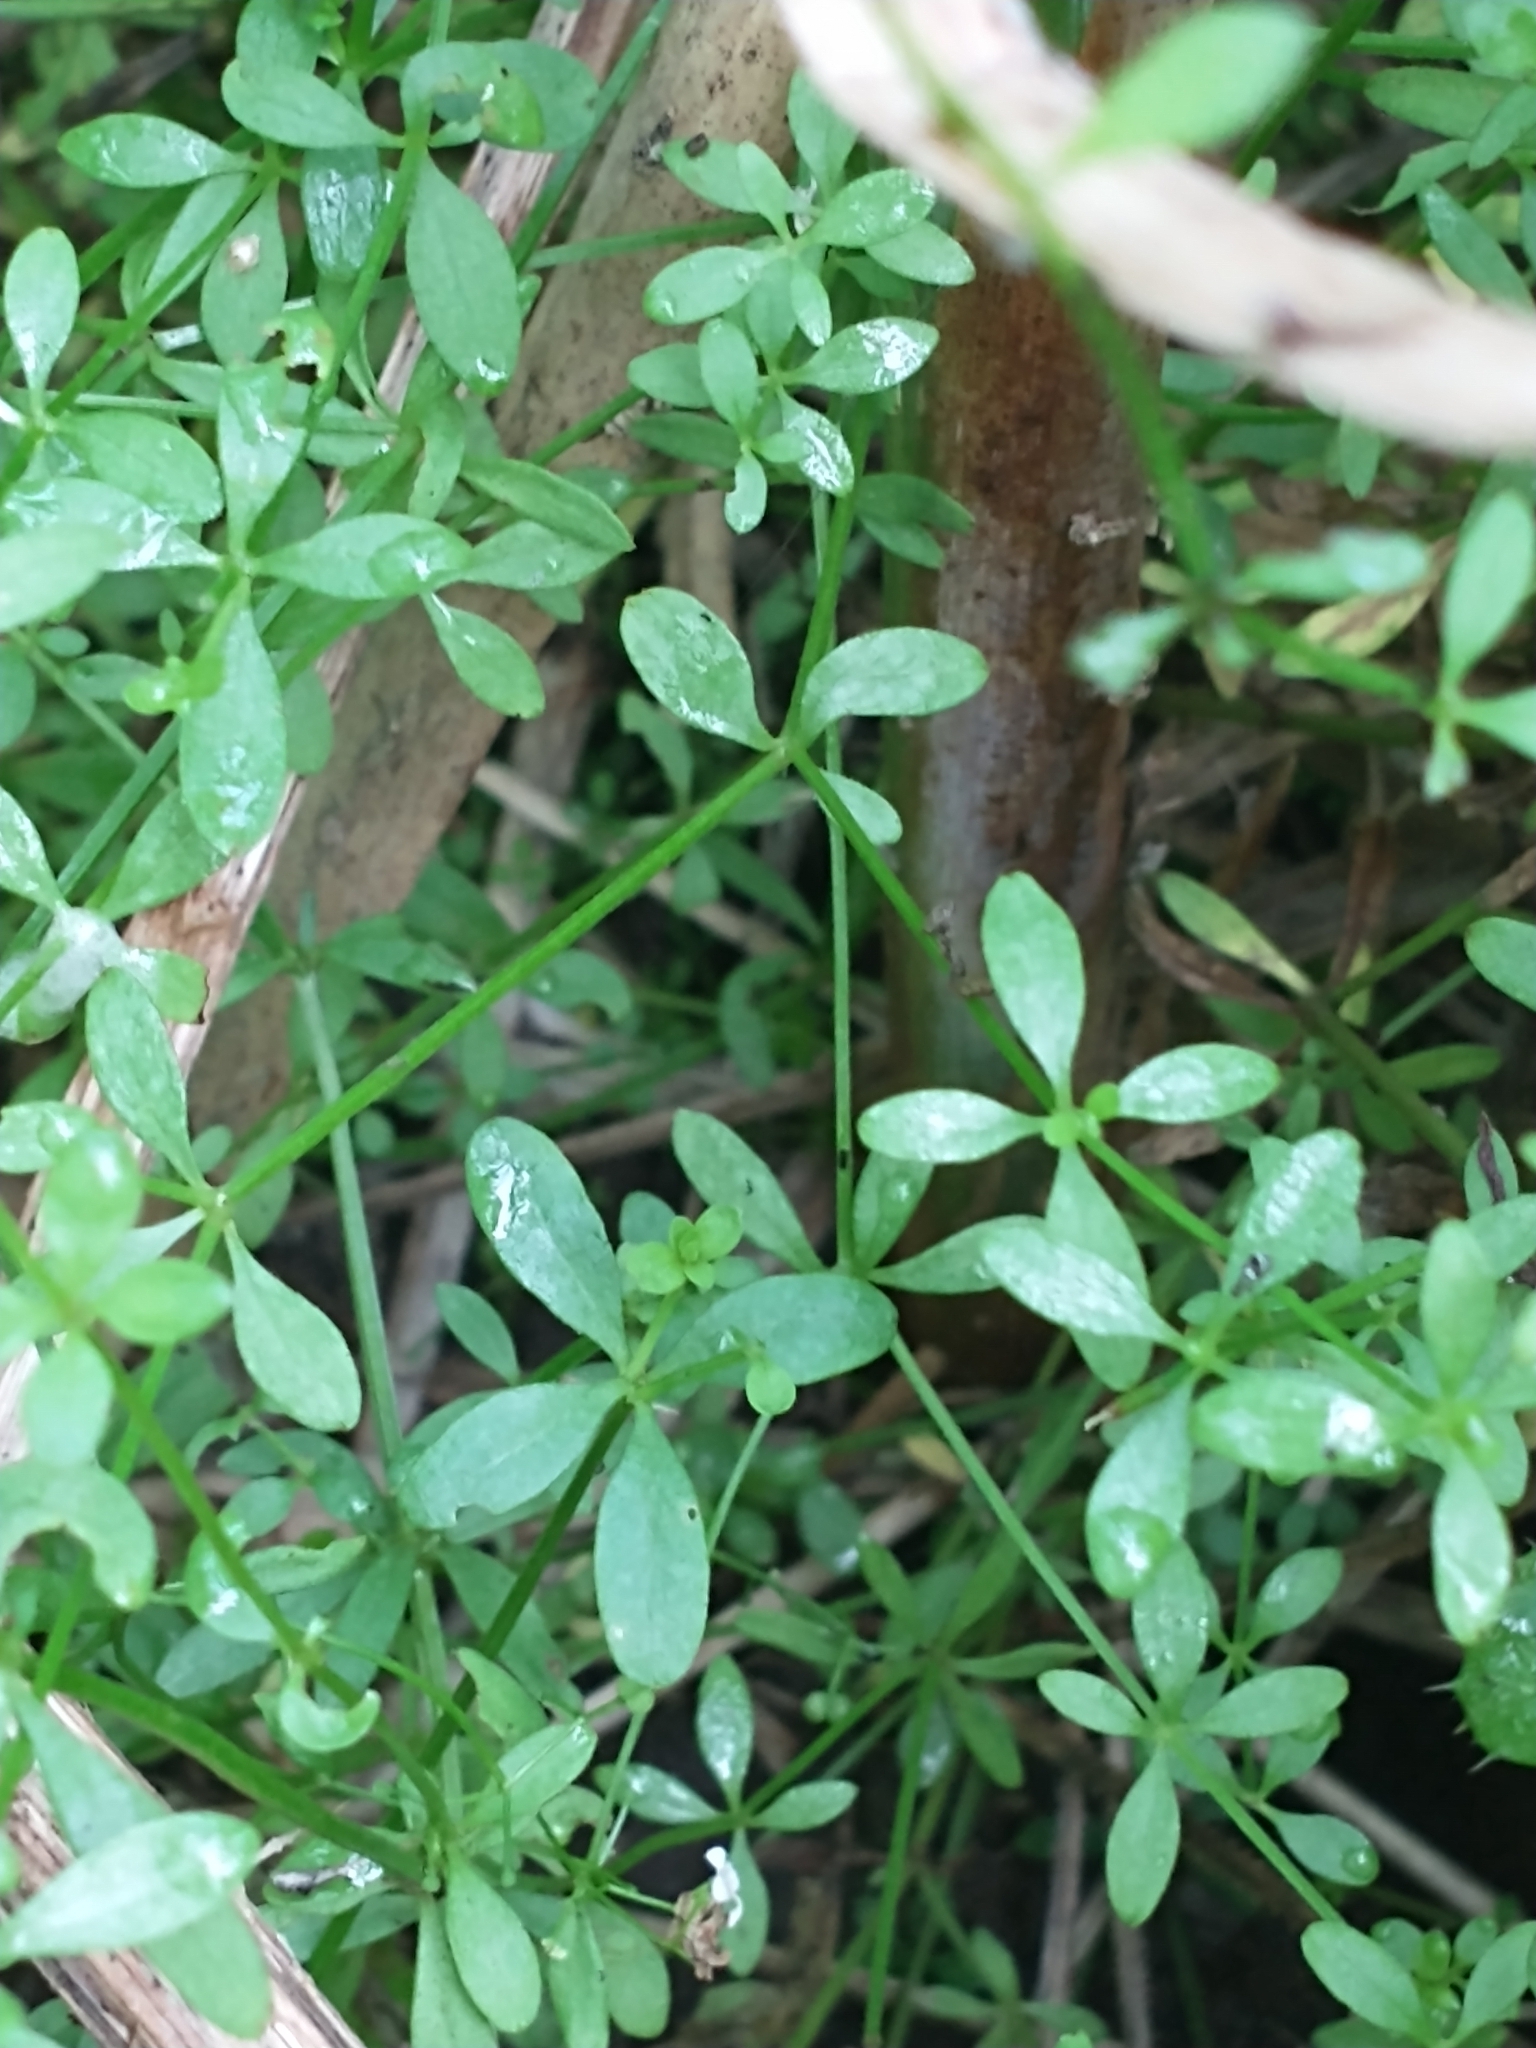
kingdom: Plantae
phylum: Tracheophyta
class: Magnoliopsida
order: Gentianales
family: Rubiaceae
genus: Galium
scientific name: Galium palustre
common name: Common marsh-bedstraw
